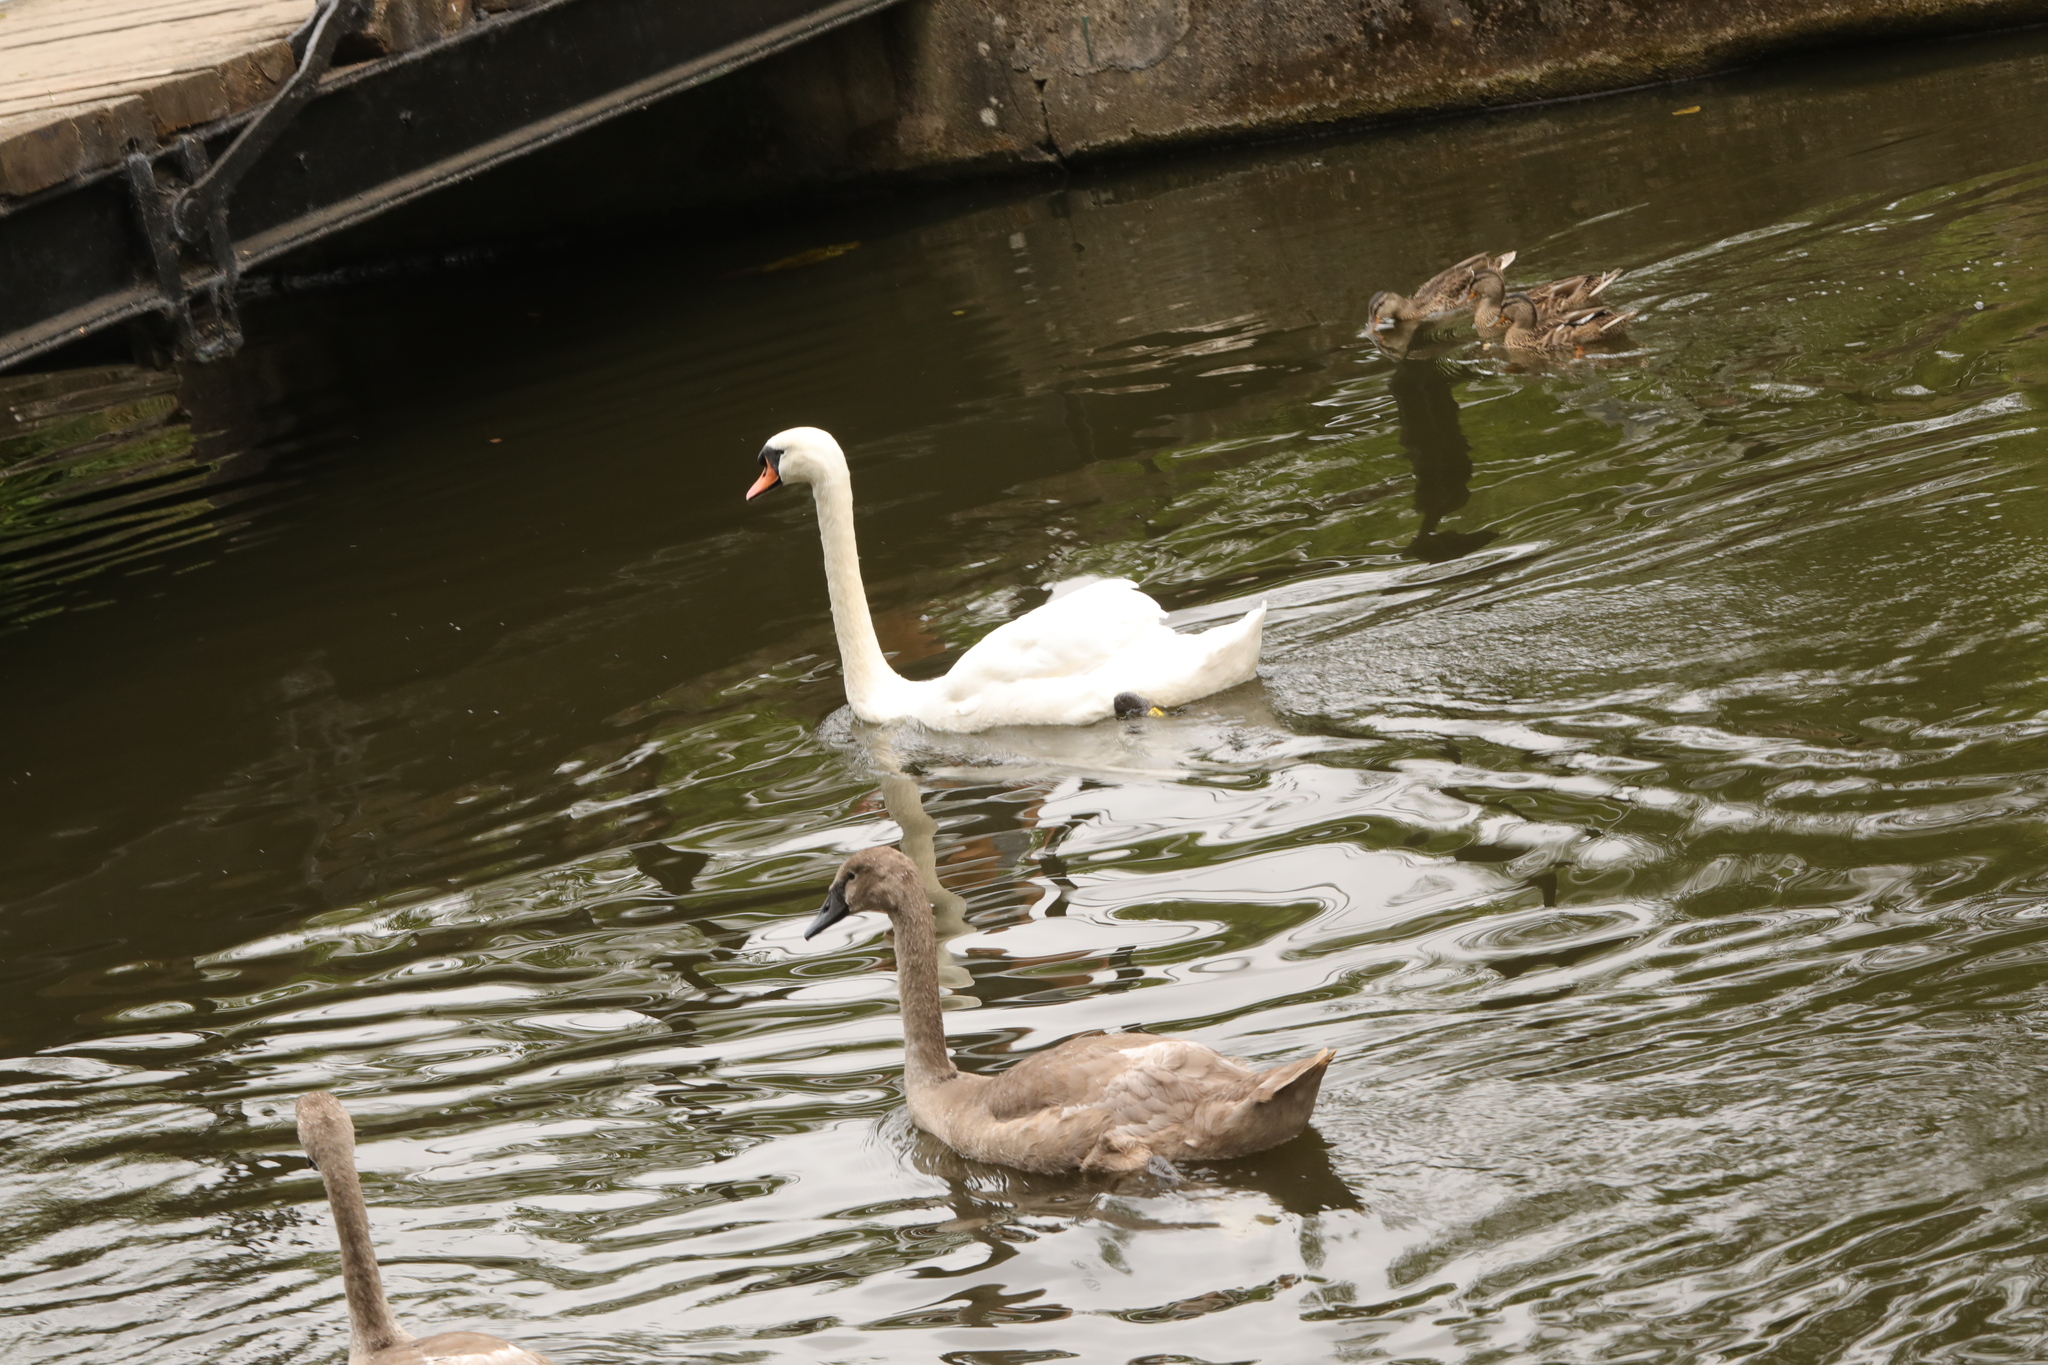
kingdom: Animalia
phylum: Chordata
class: Aves
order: Anseriformes
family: Anatidae
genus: Cygnus
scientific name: Cygnus olor
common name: Mute swan
